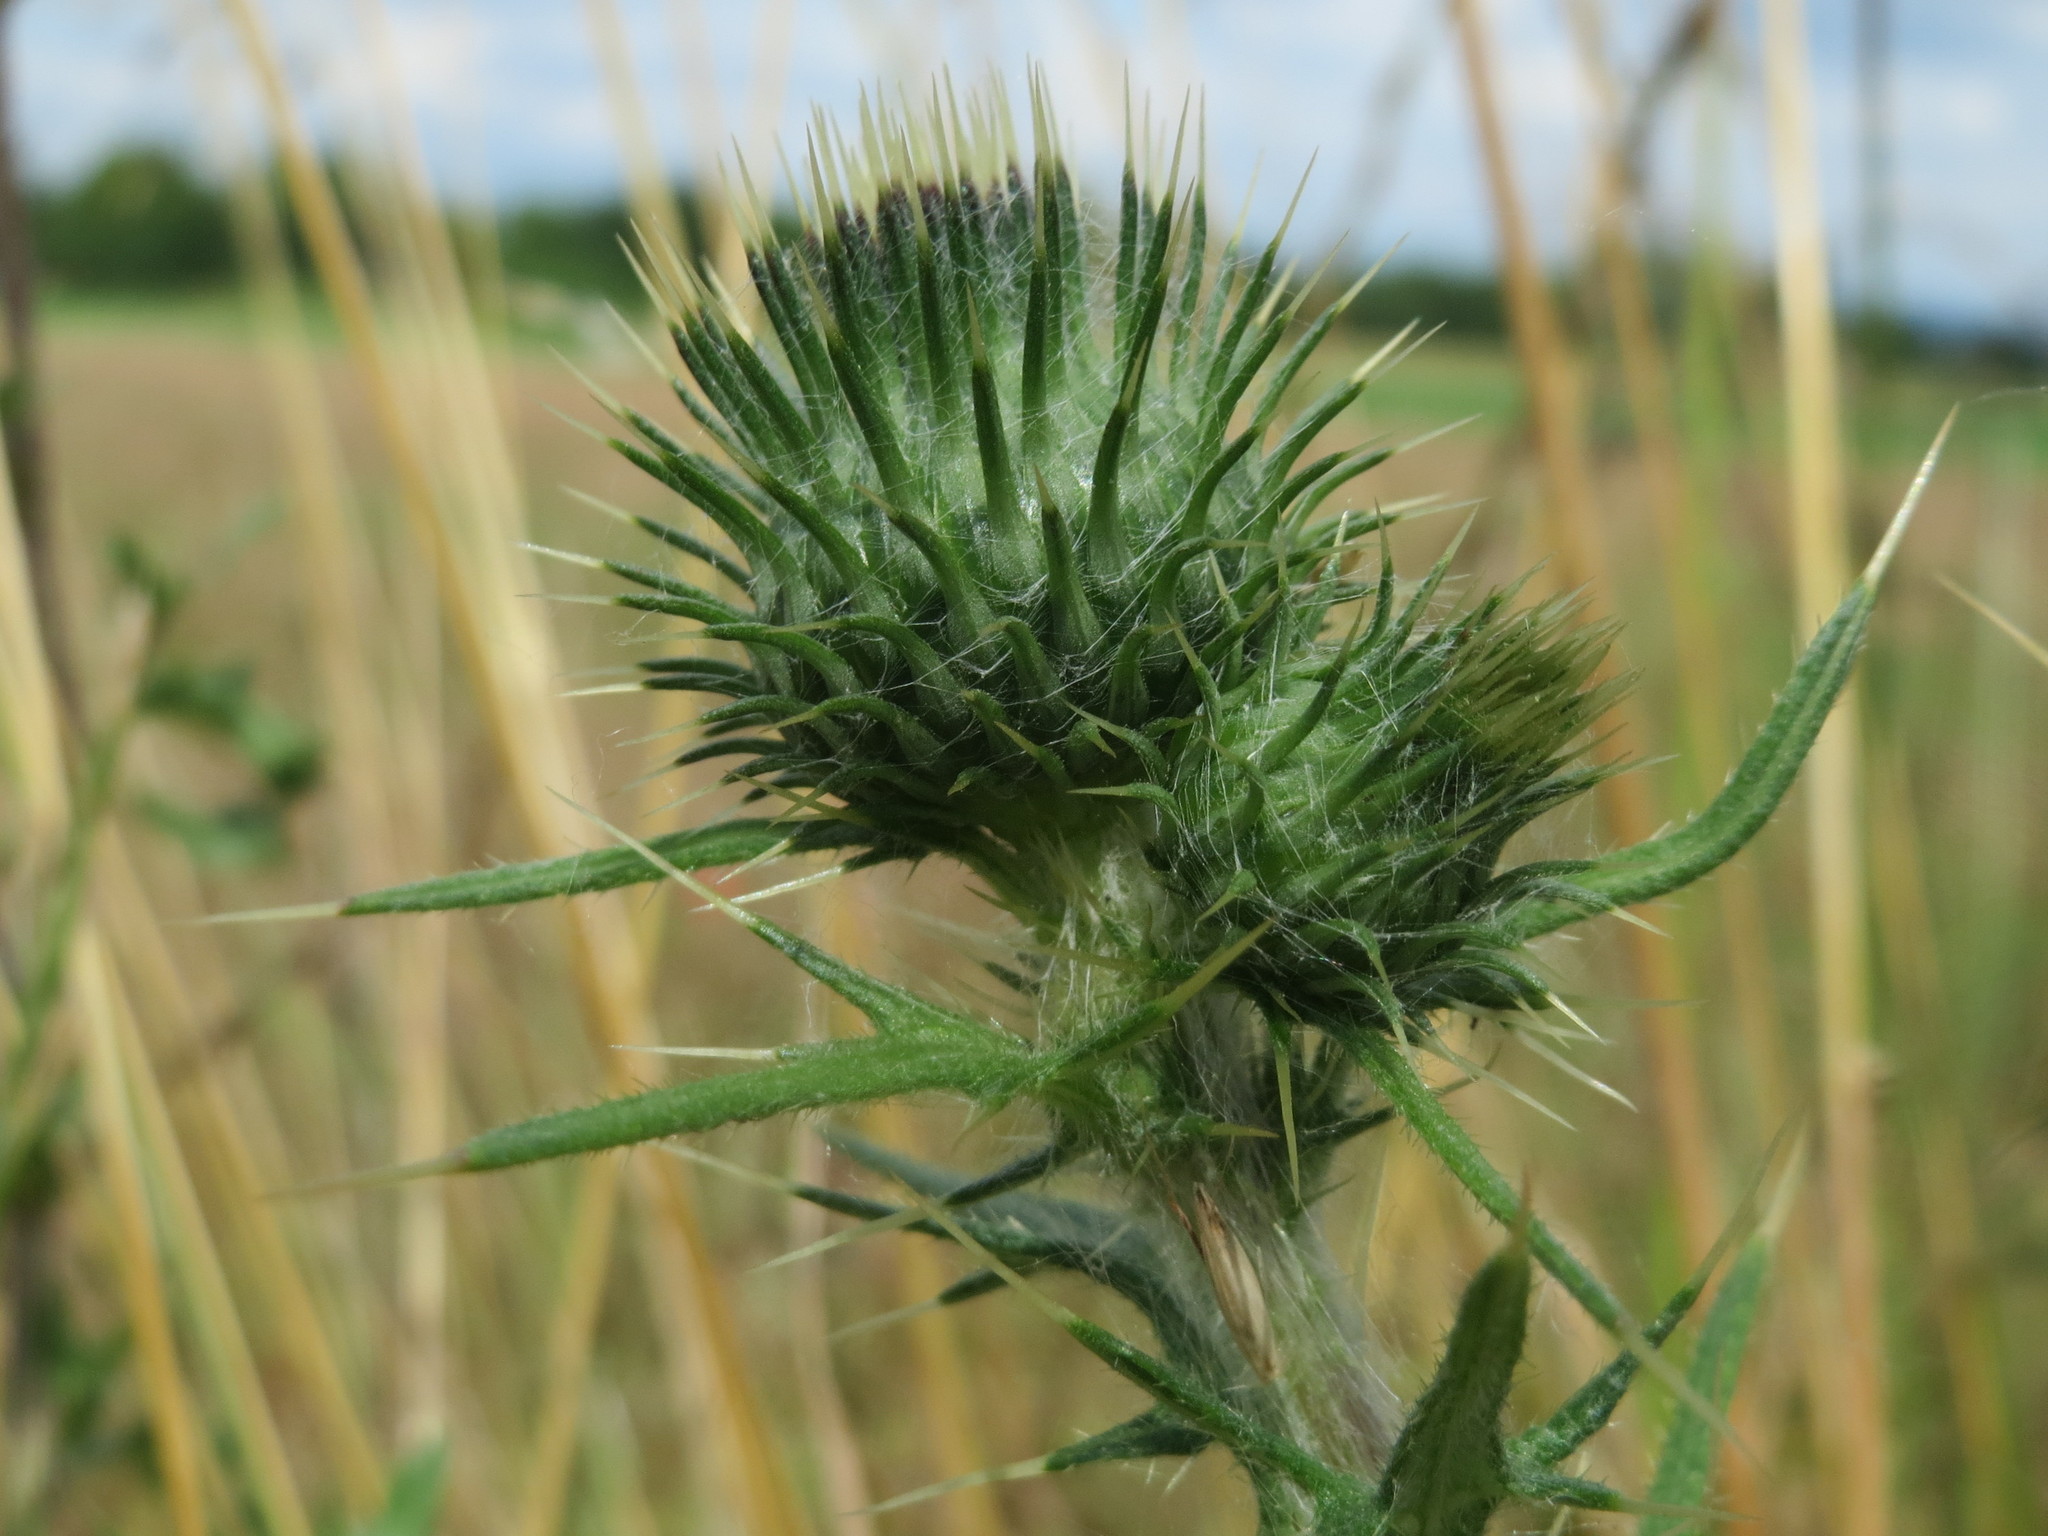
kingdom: Plantae
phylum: Tracheophyta
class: Magnoliopsida
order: Asterales
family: Asteraceae
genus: Cirsium
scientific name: Cirsium vulgare
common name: Bull thistle
